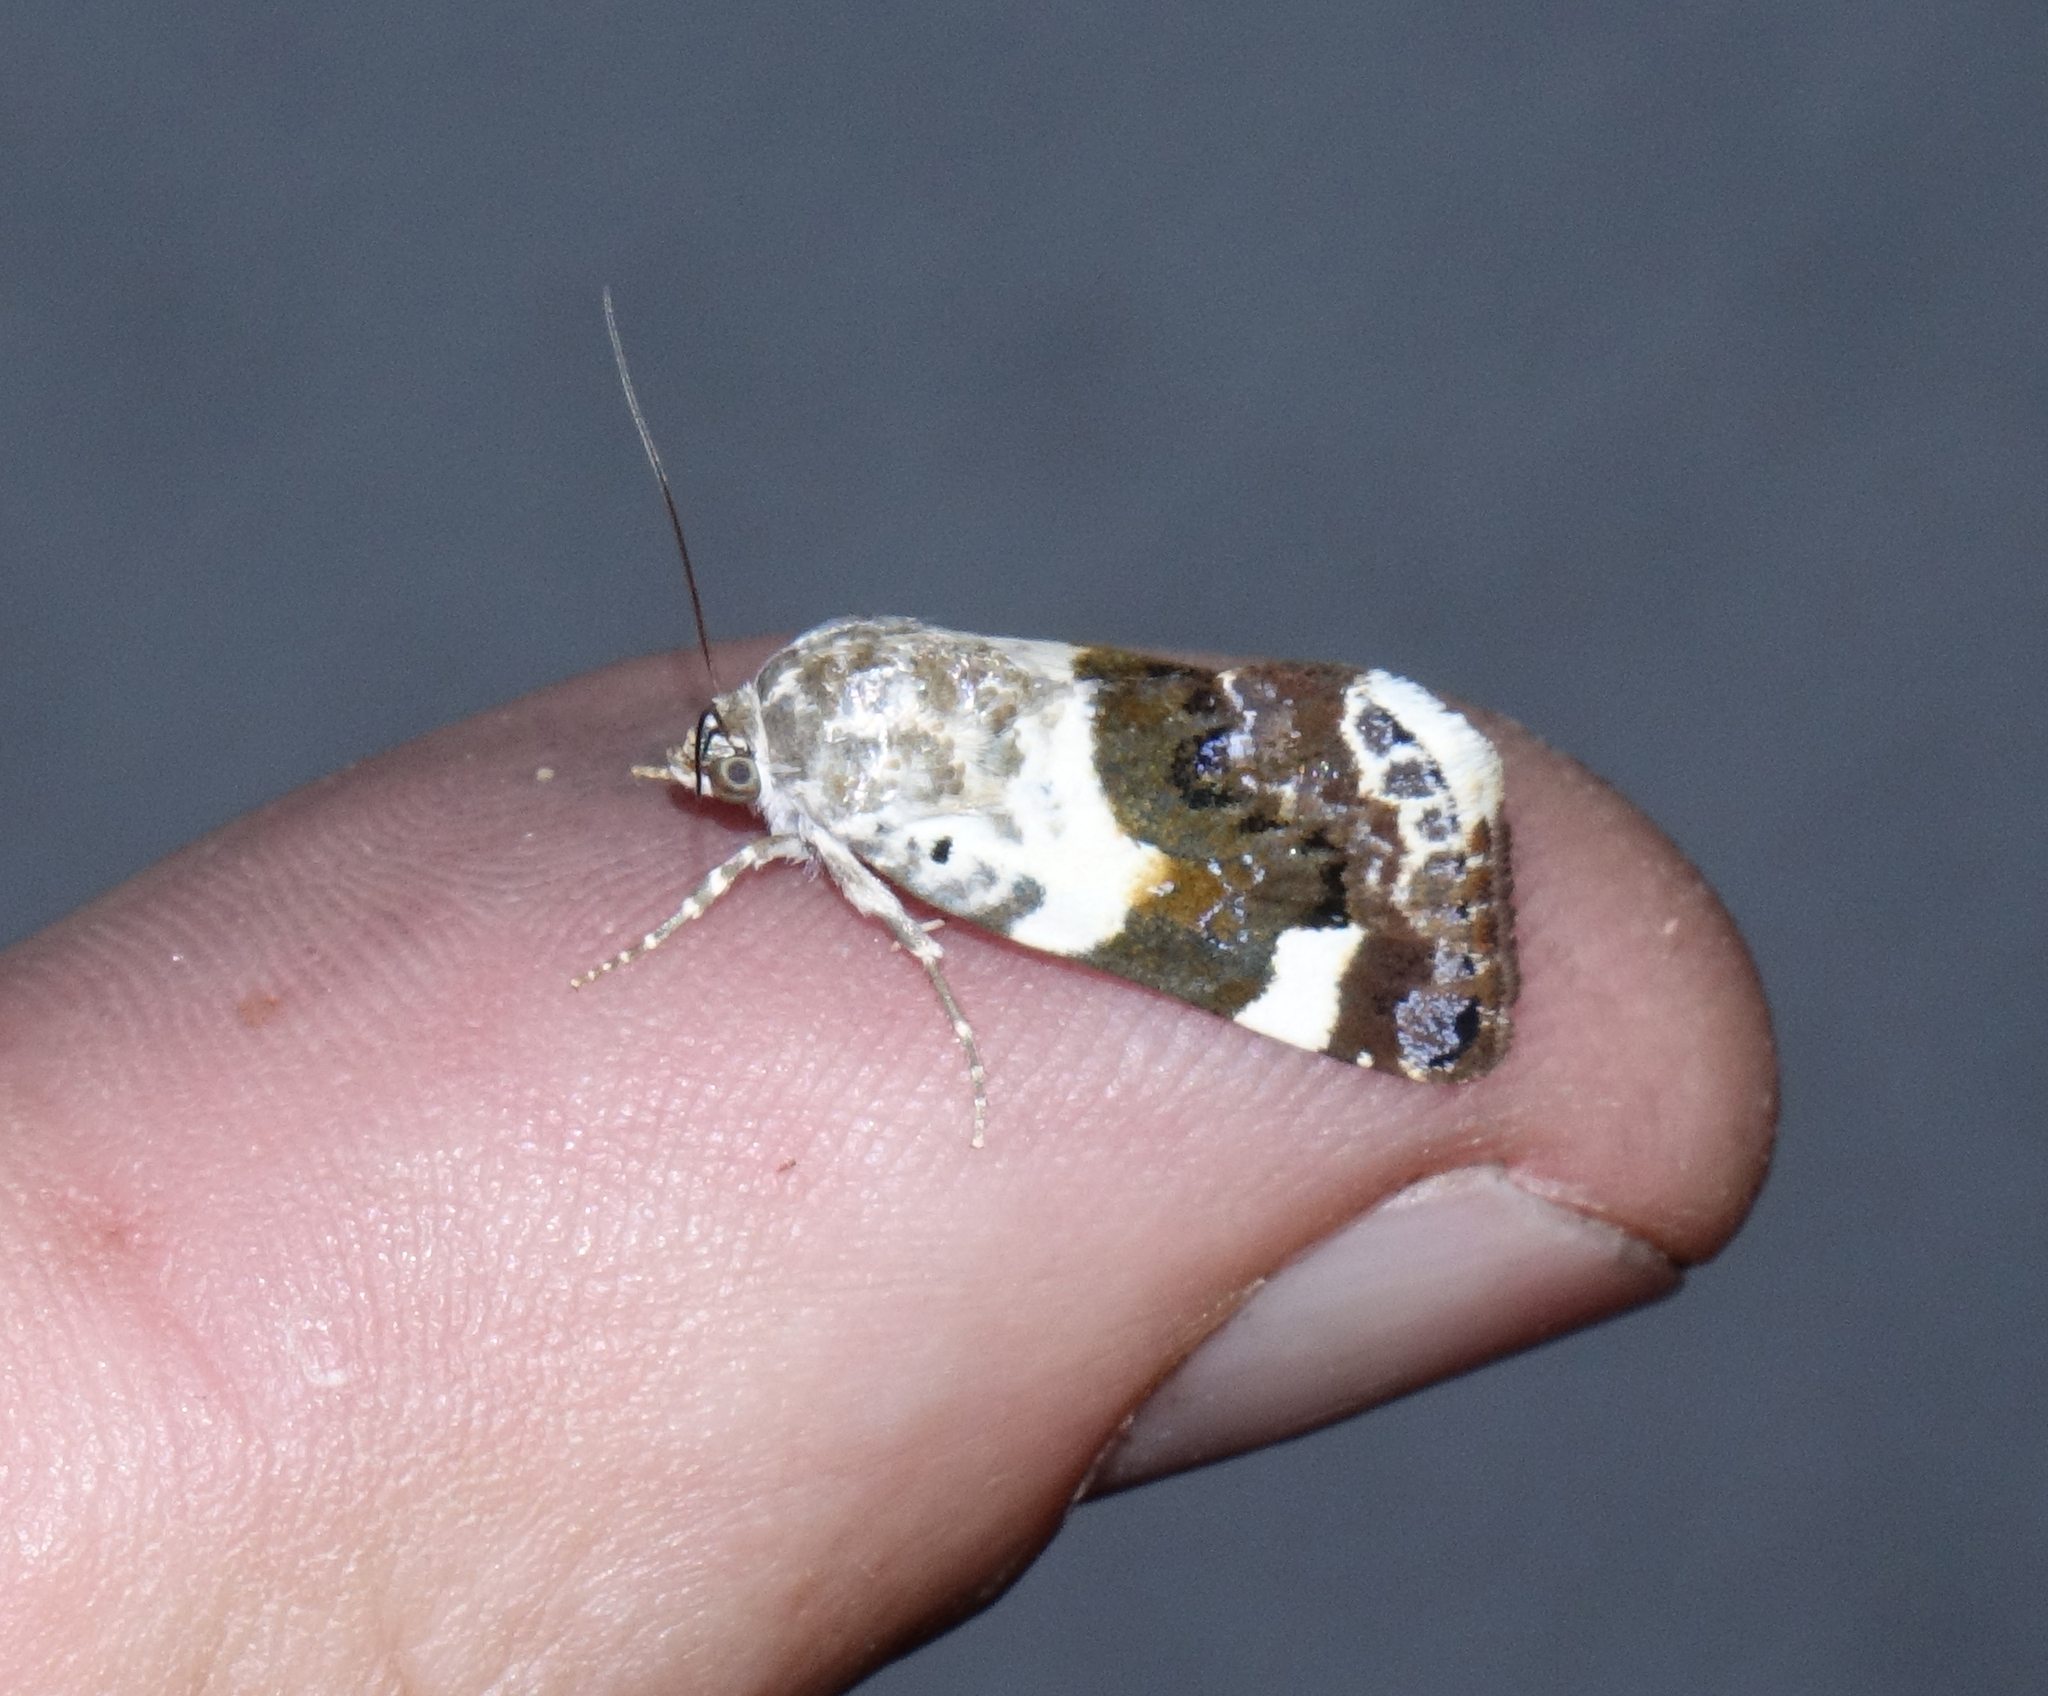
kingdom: Animalia
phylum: Arthropoda
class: Insecta
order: Lepidoptera
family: Noctuidae
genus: Acontia
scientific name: Acontia lucida
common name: Pale shoulder
